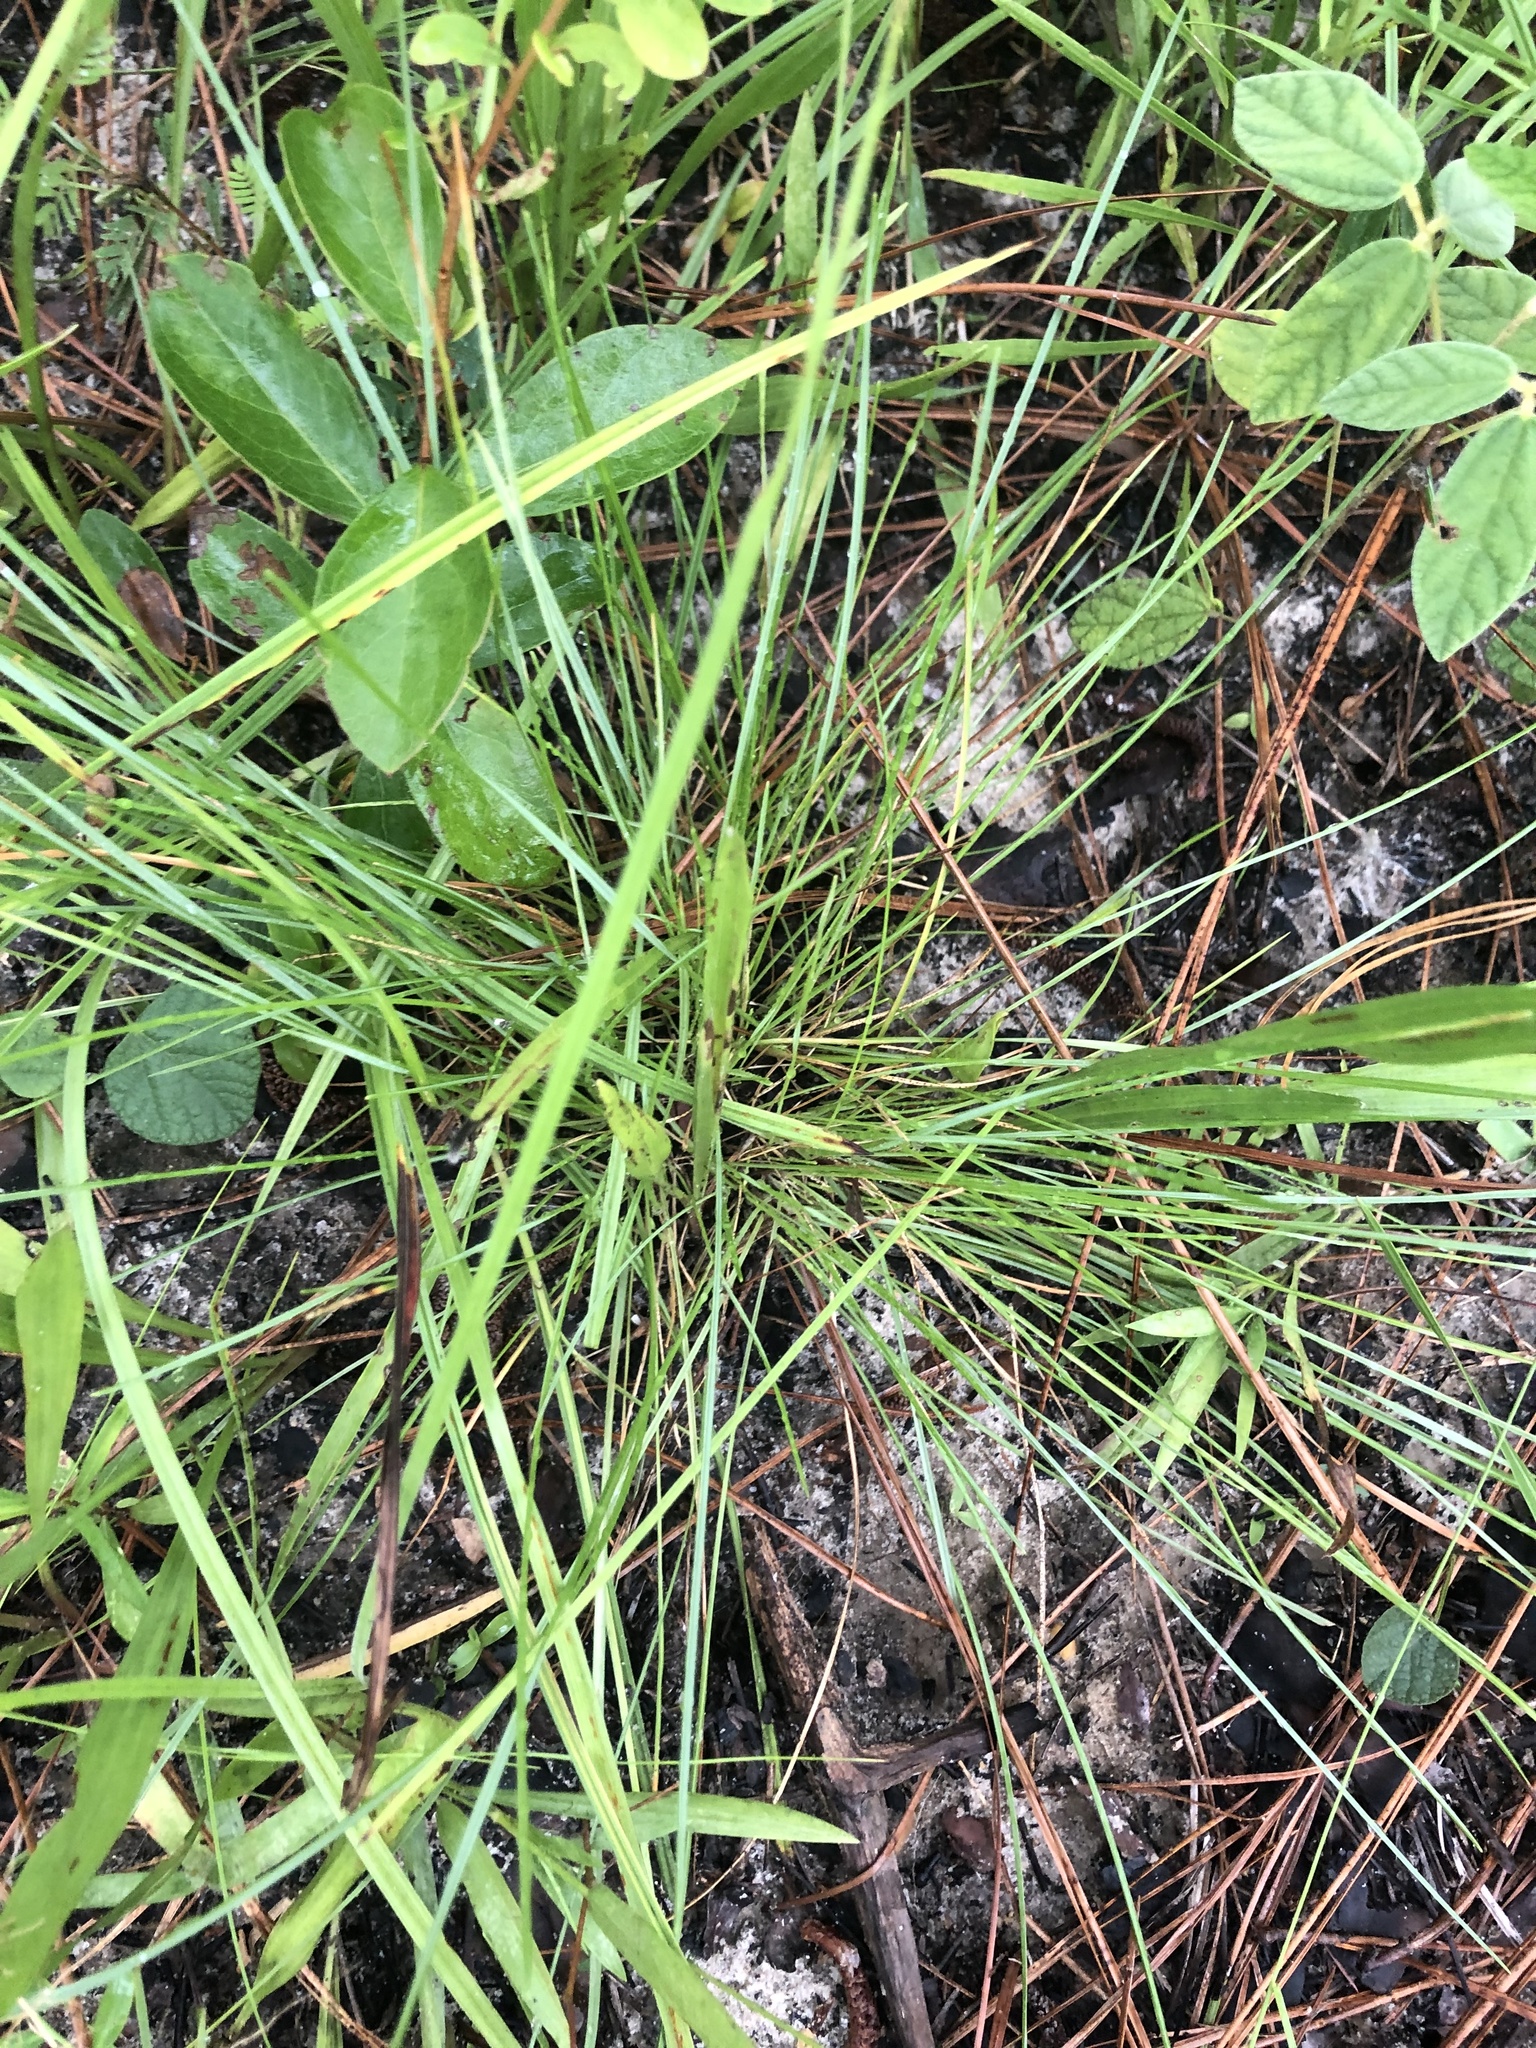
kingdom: Plantae
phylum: Tracheophyta
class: Liliopsida
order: Poales
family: Poaceae
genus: Sporobolus
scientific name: Sporobolus junceus
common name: Lizard grass
